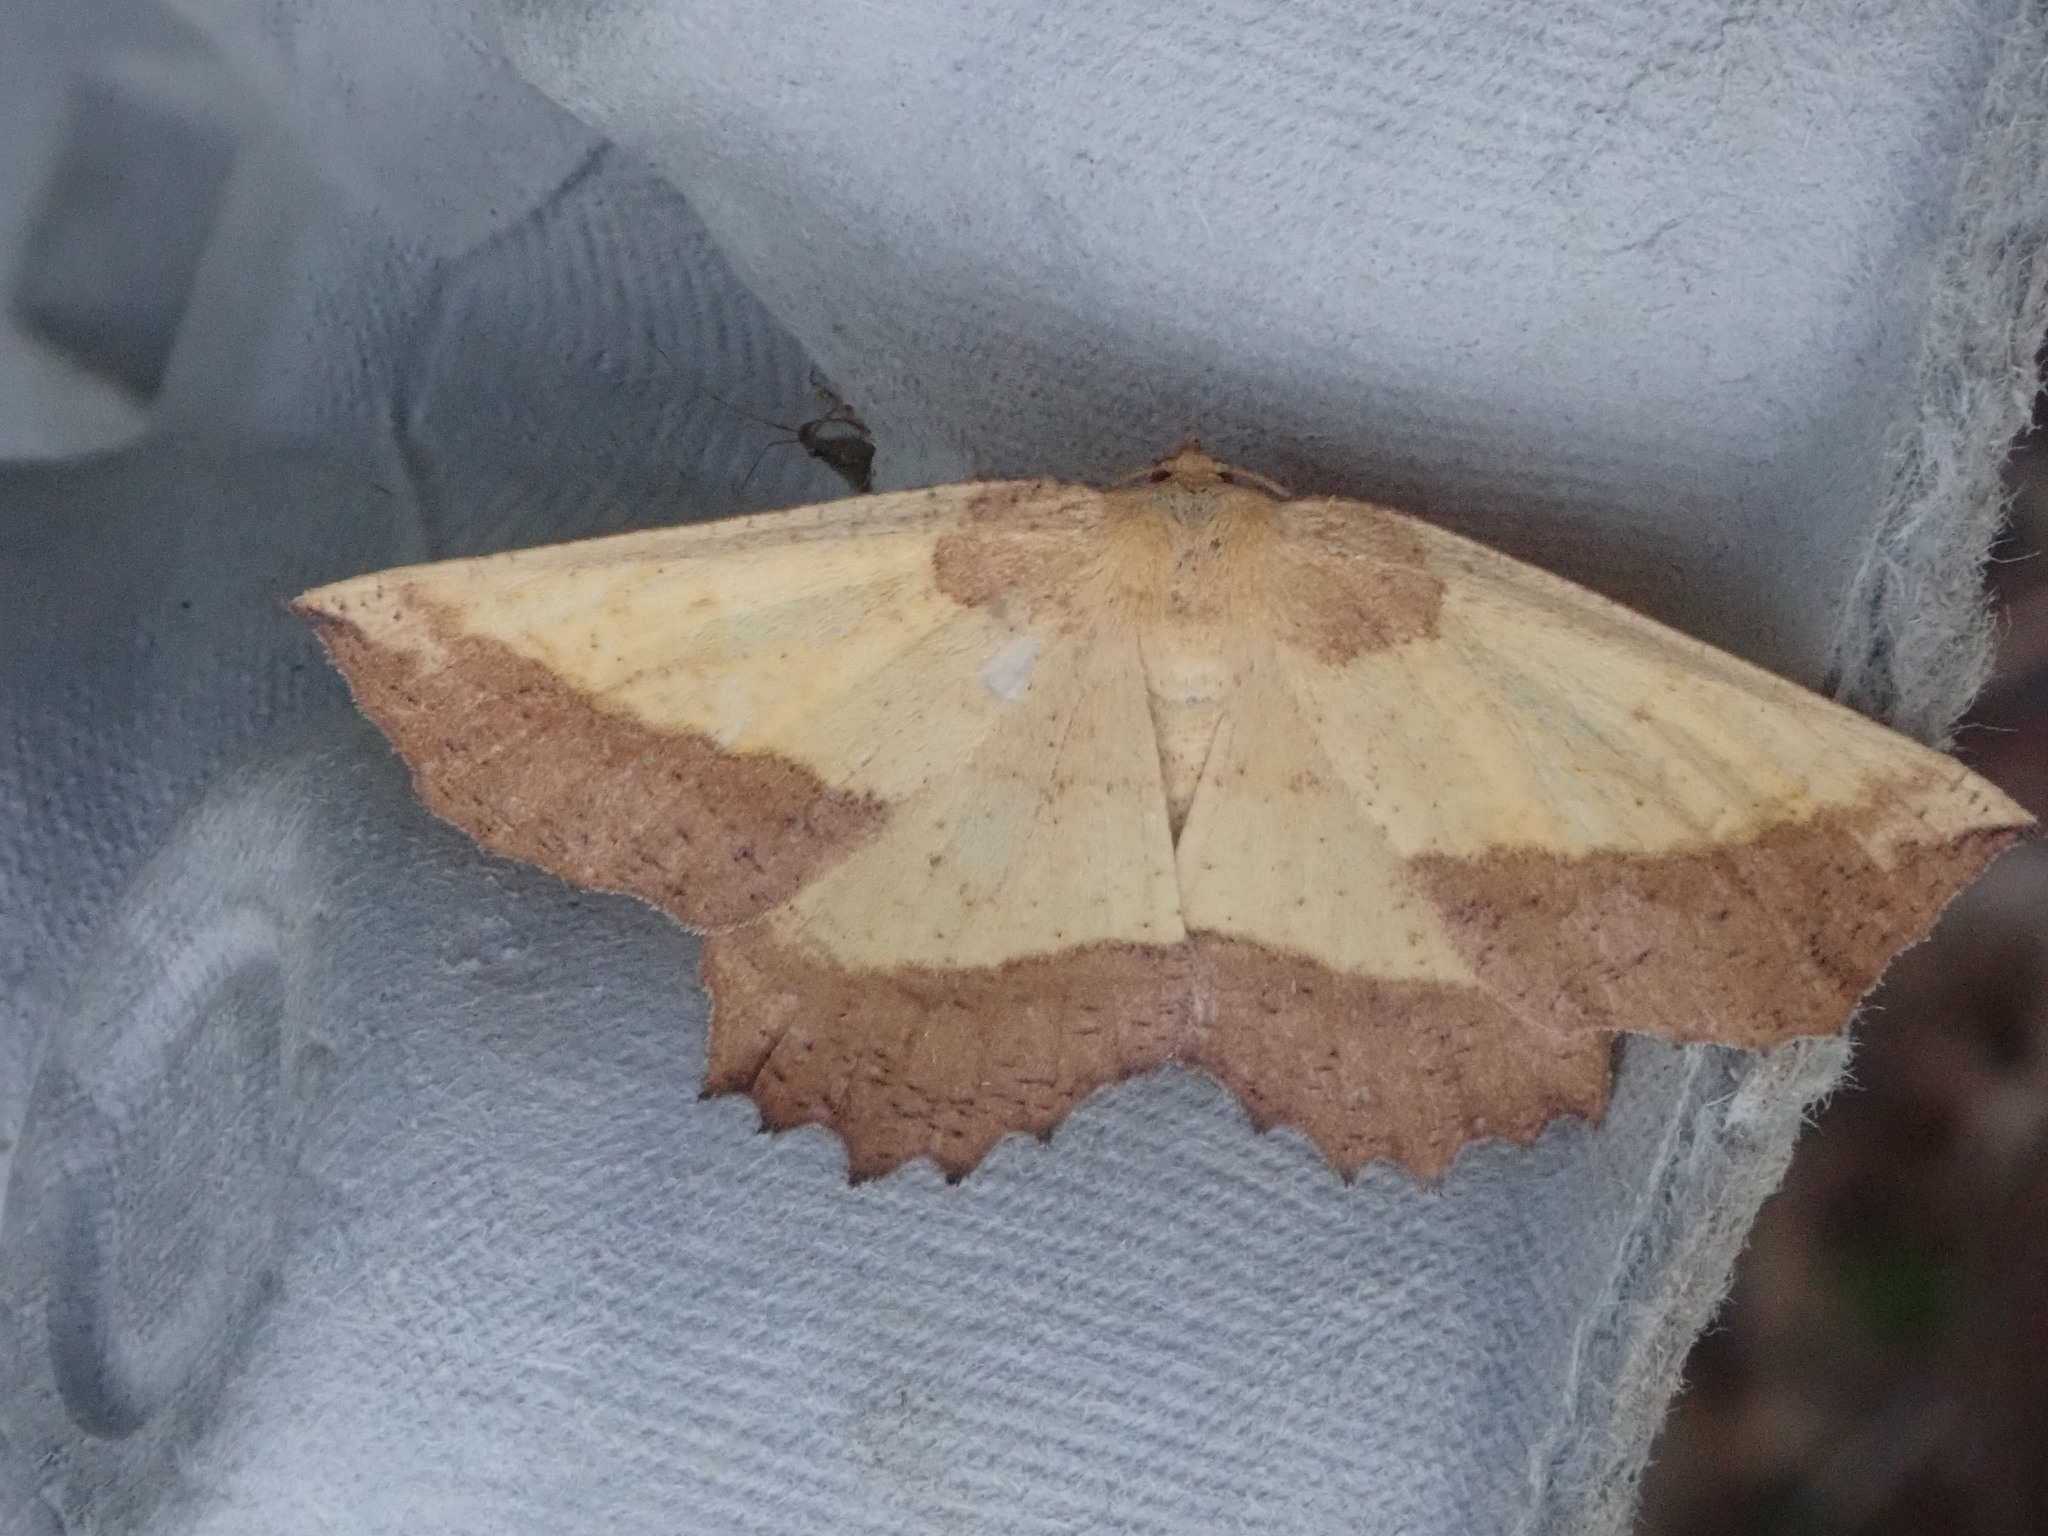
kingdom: Animalia
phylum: Arthropoda
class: Insecta
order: Lepidoptera
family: Geometridae
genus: Euchlaena
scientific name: Euchlaena serrata
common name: Saw wing
